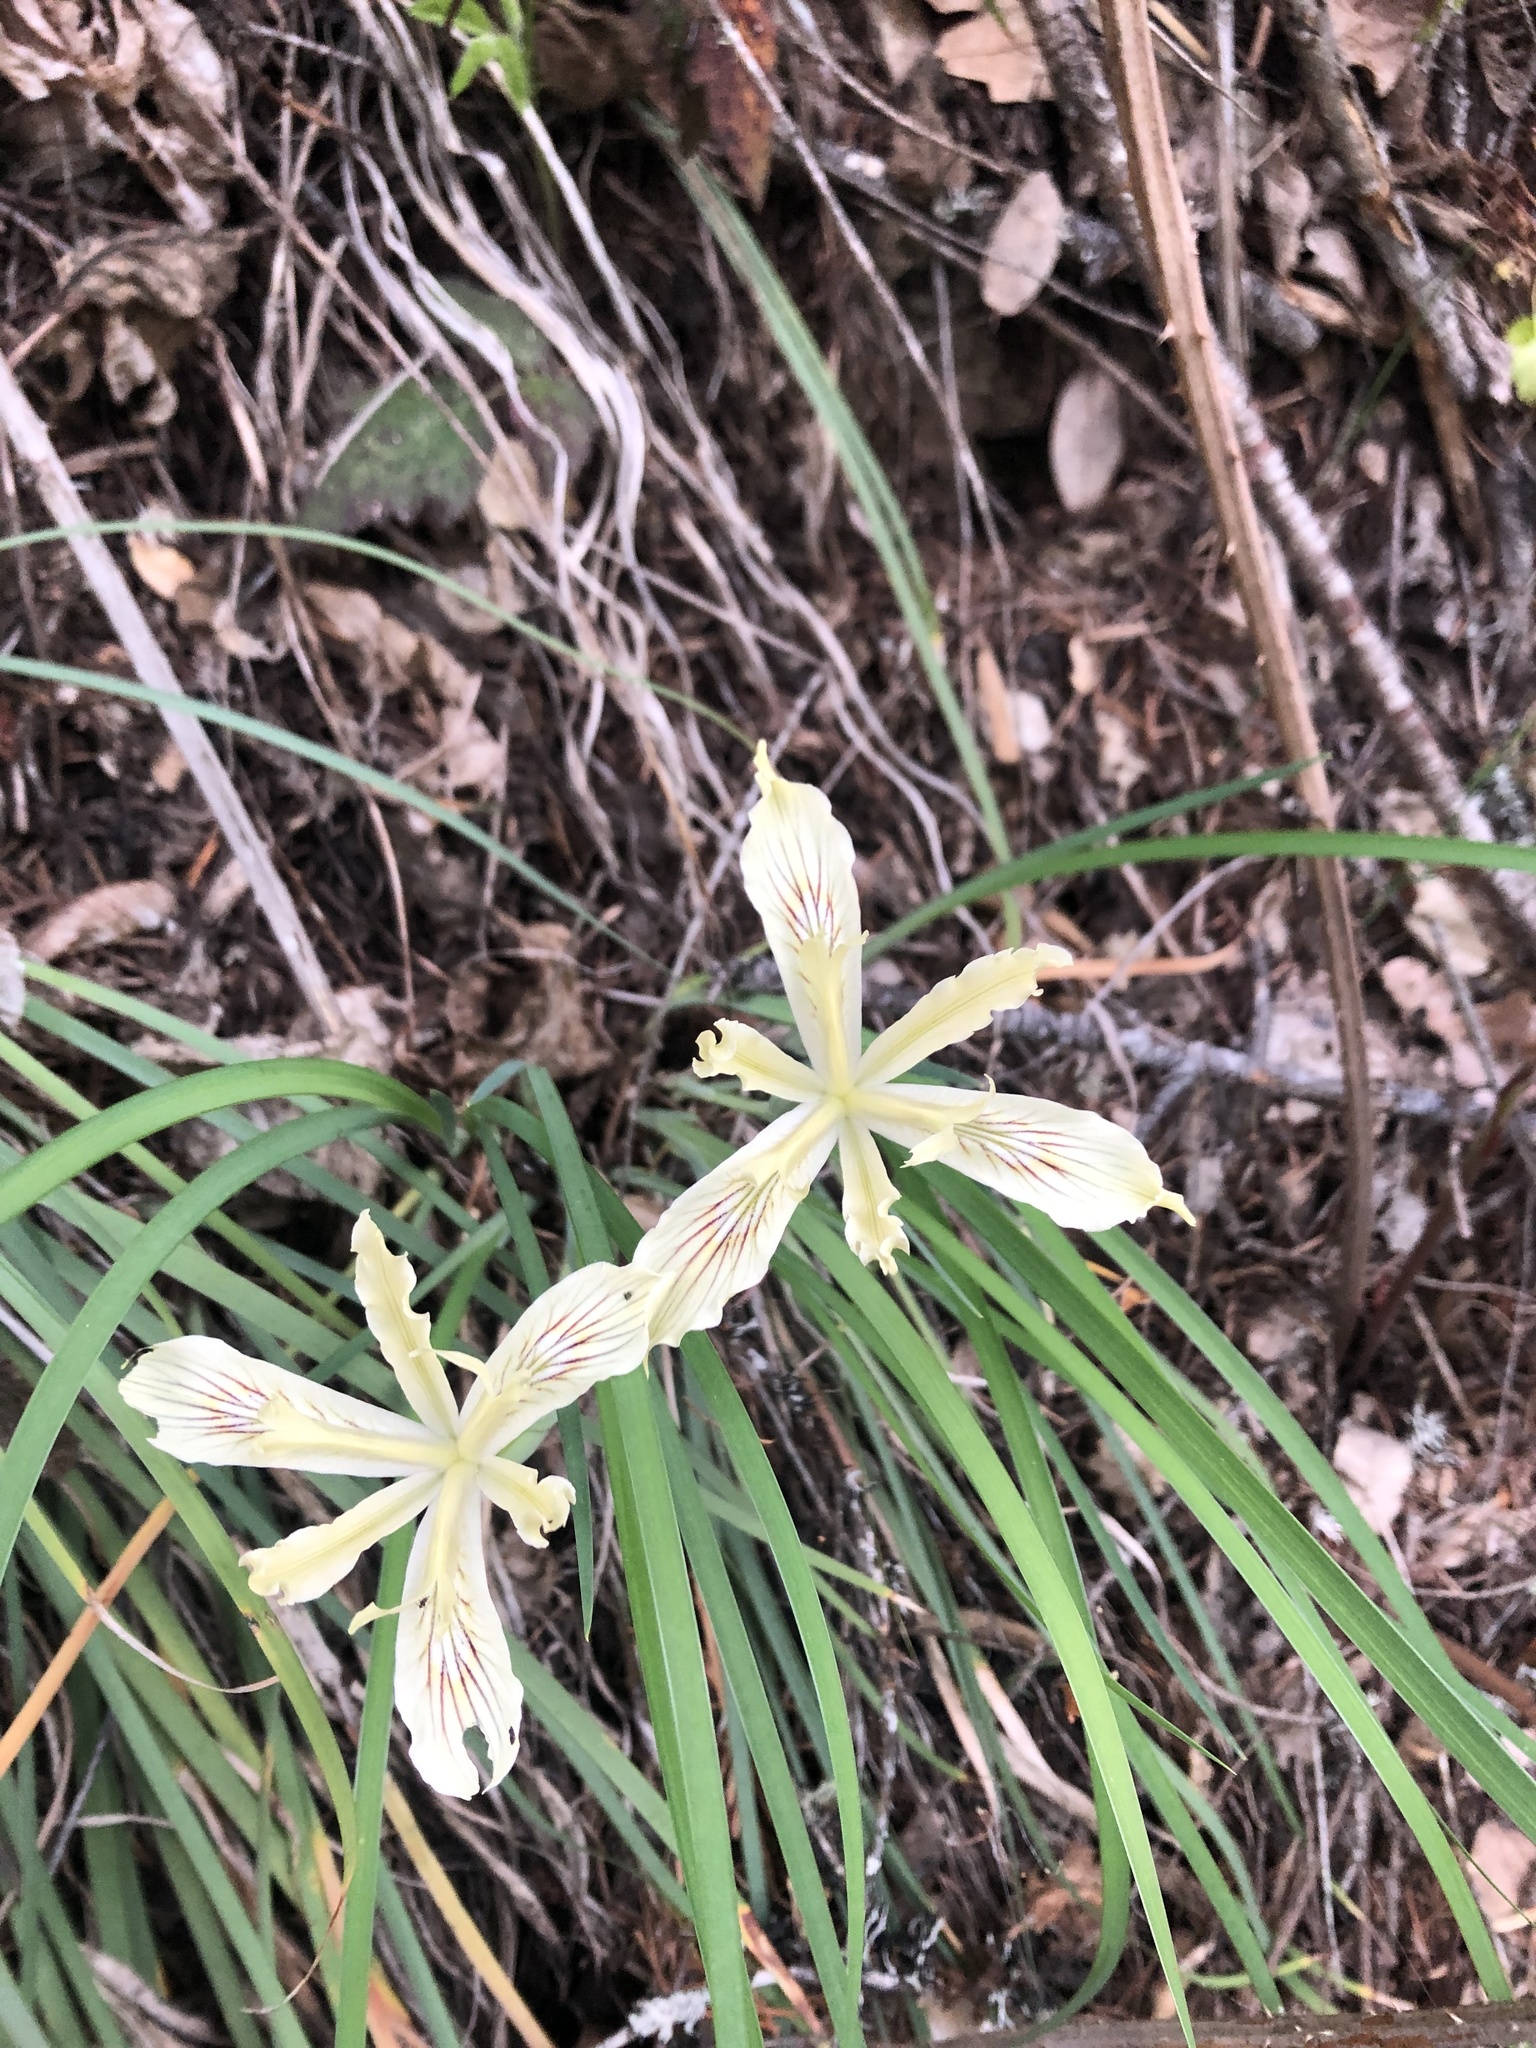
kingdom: Plantae
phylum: Tracheophyta
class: Liliopsida
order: Asparagales
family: Iridaceae
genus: Iris
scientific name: Iris tenuissima
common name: Long-tube iris
